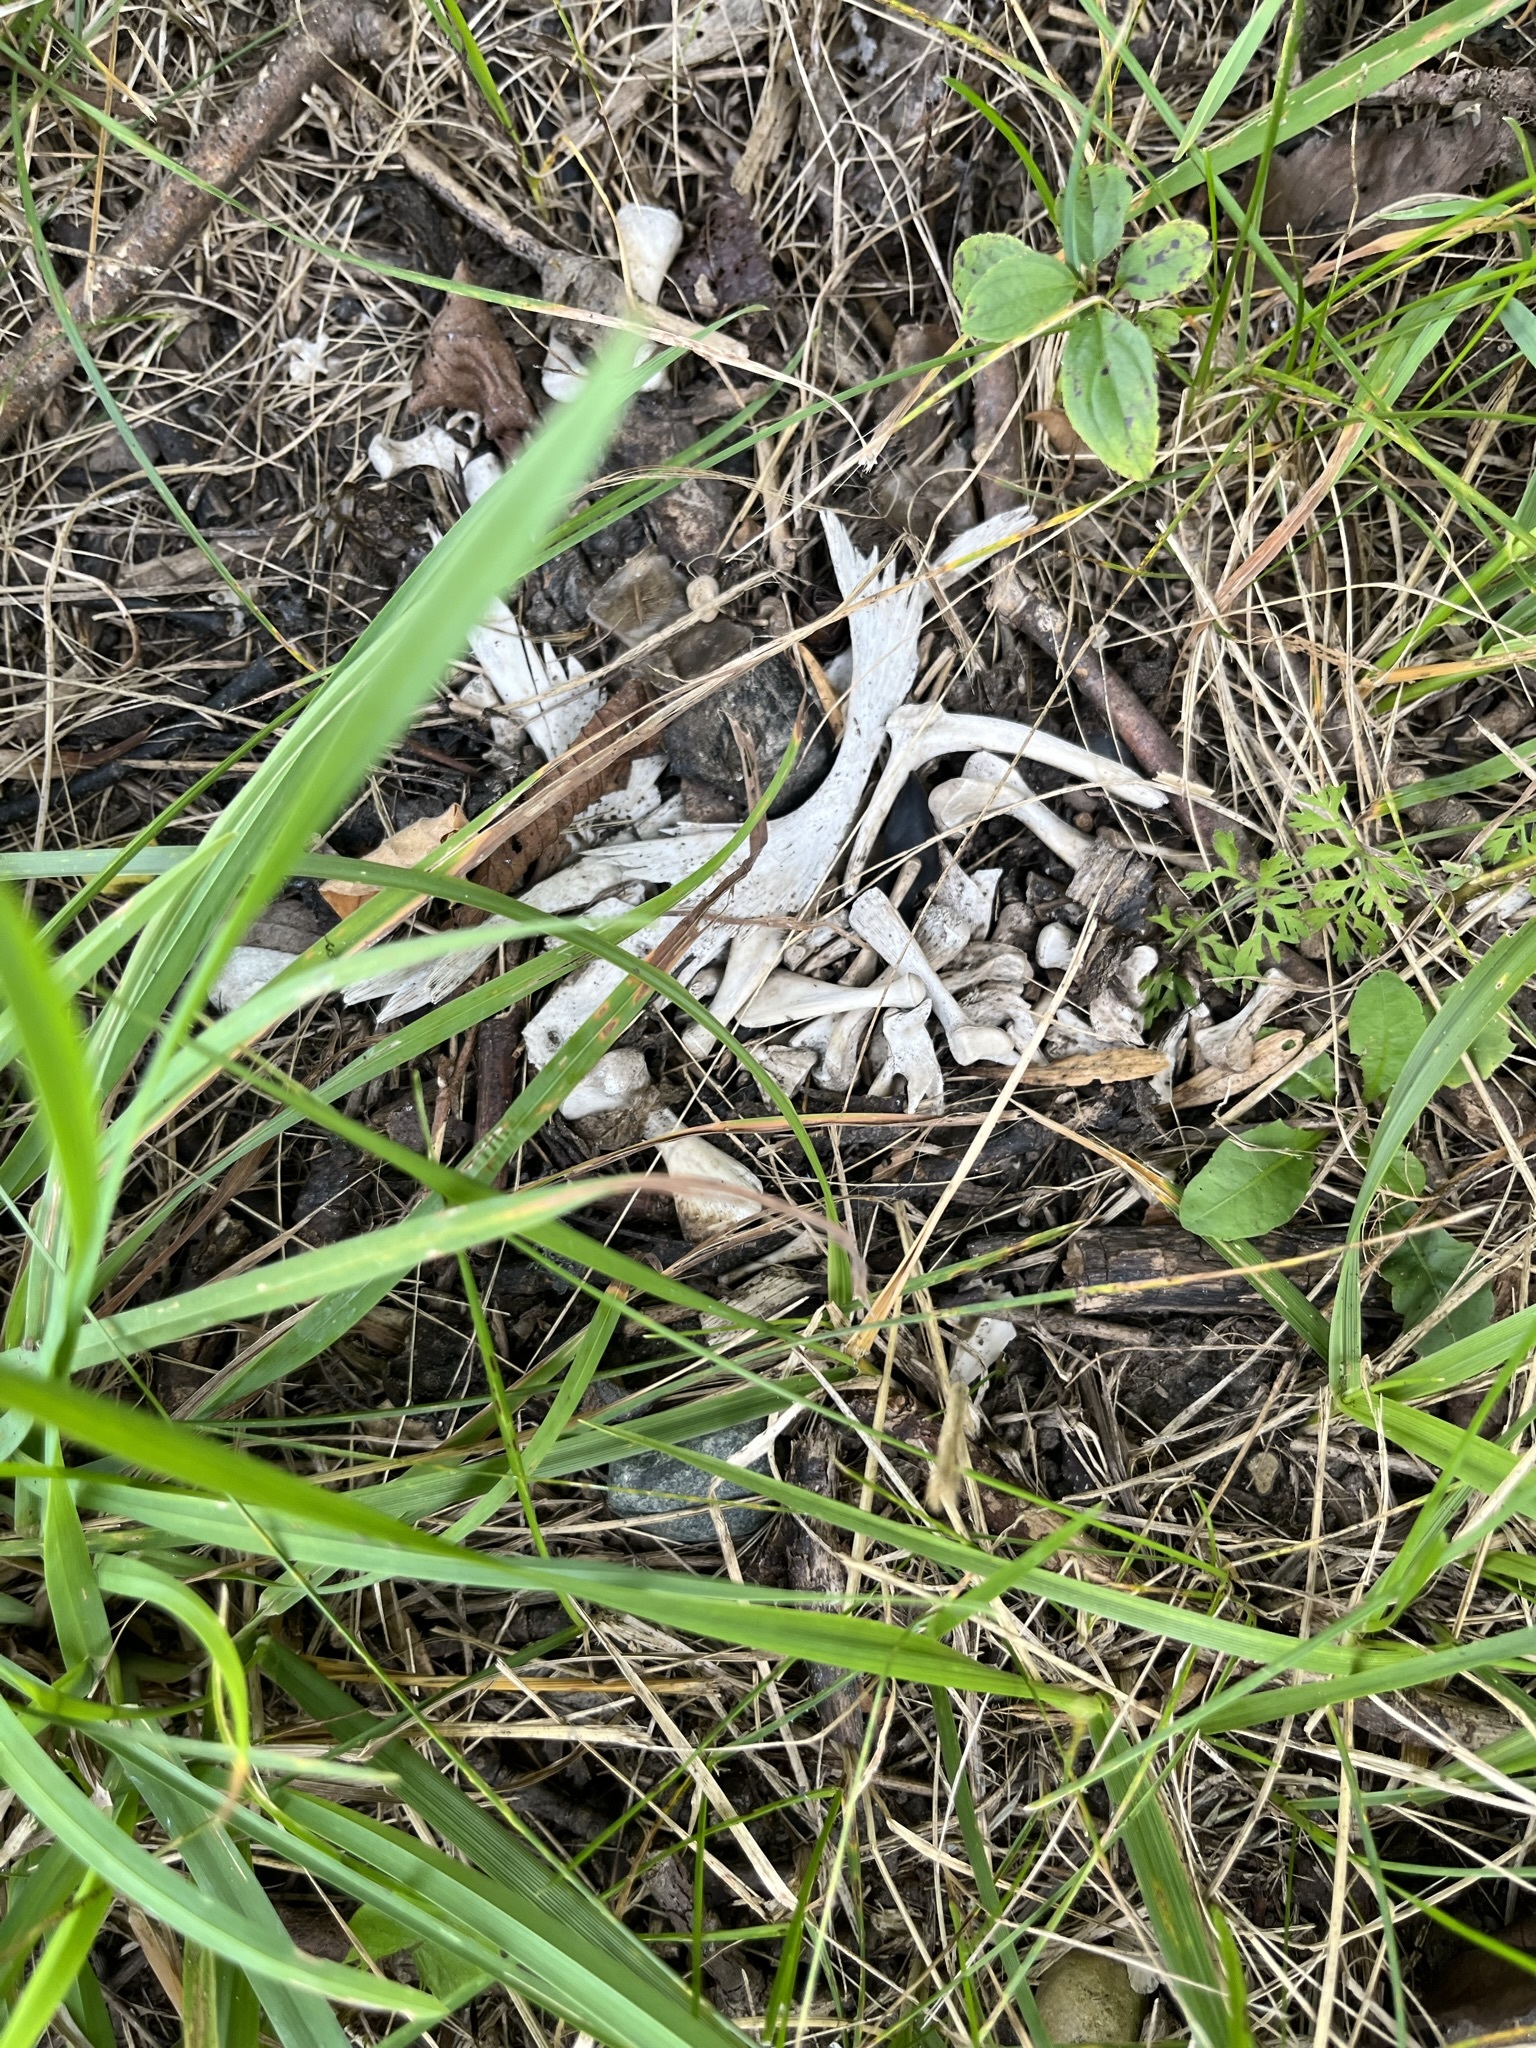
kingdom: Animalia
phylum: Chordata
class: Testudines
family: Chelydridae
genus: Chelydra
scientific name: Chelydra serpentina
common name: Common snapping turtle
